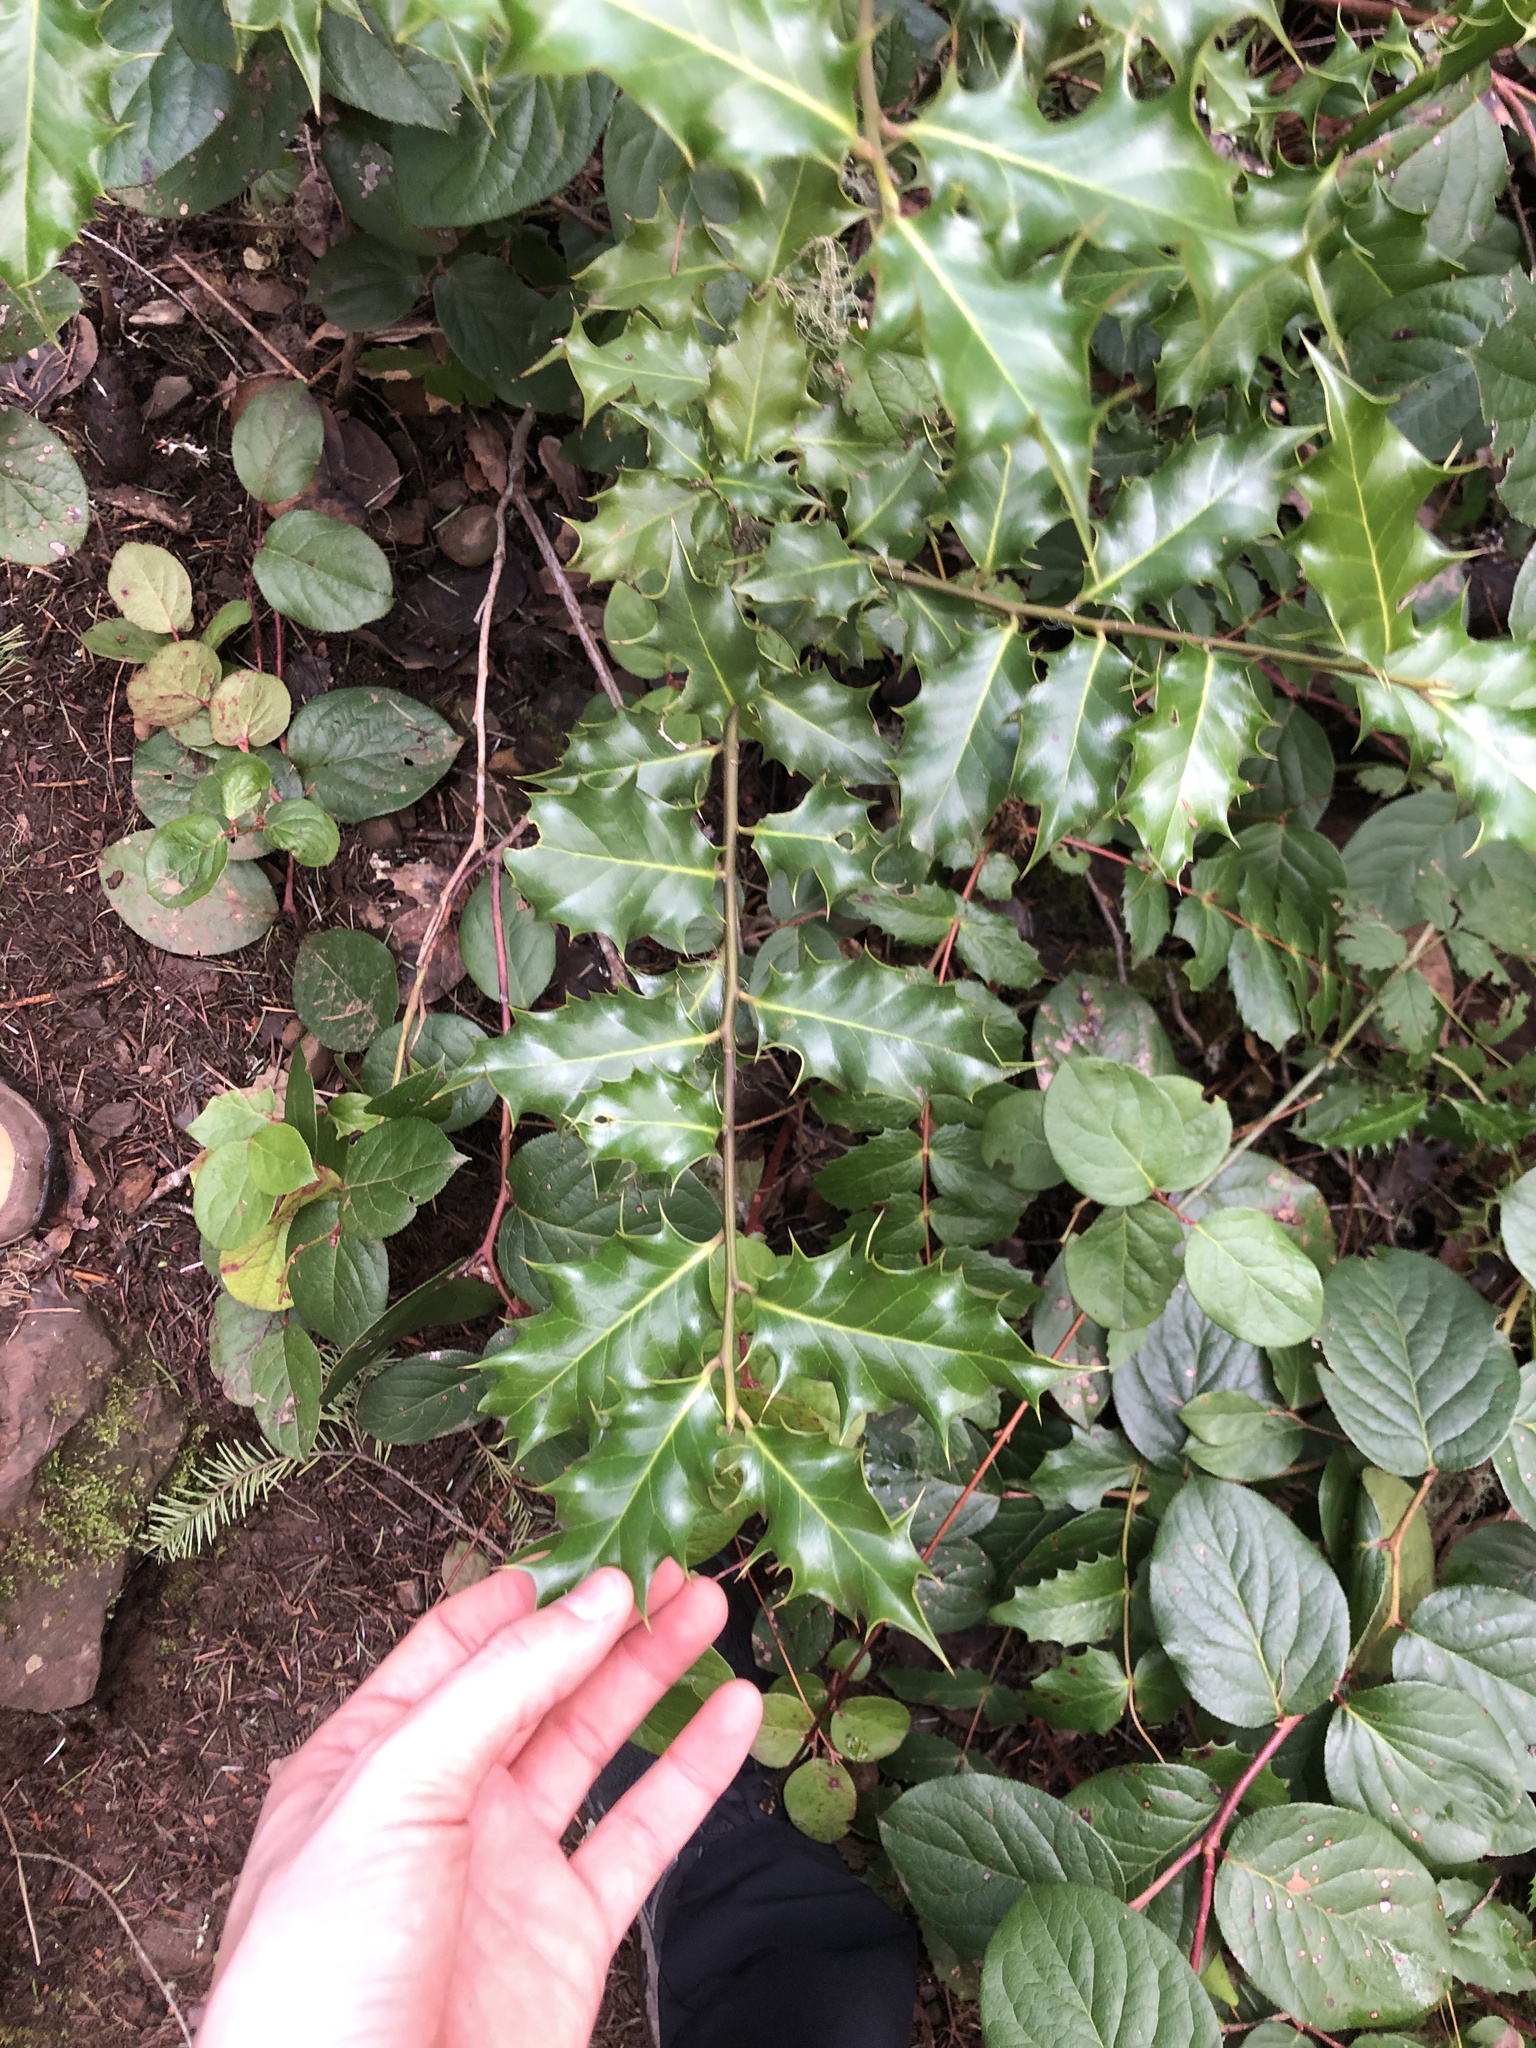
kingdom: Plantae
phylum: Tracheophyta
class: Magnoliopsida
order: Aquifoliales
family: Aquifoliaceae
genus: Ilex
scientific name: Ilex aquifolium
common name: English holly
